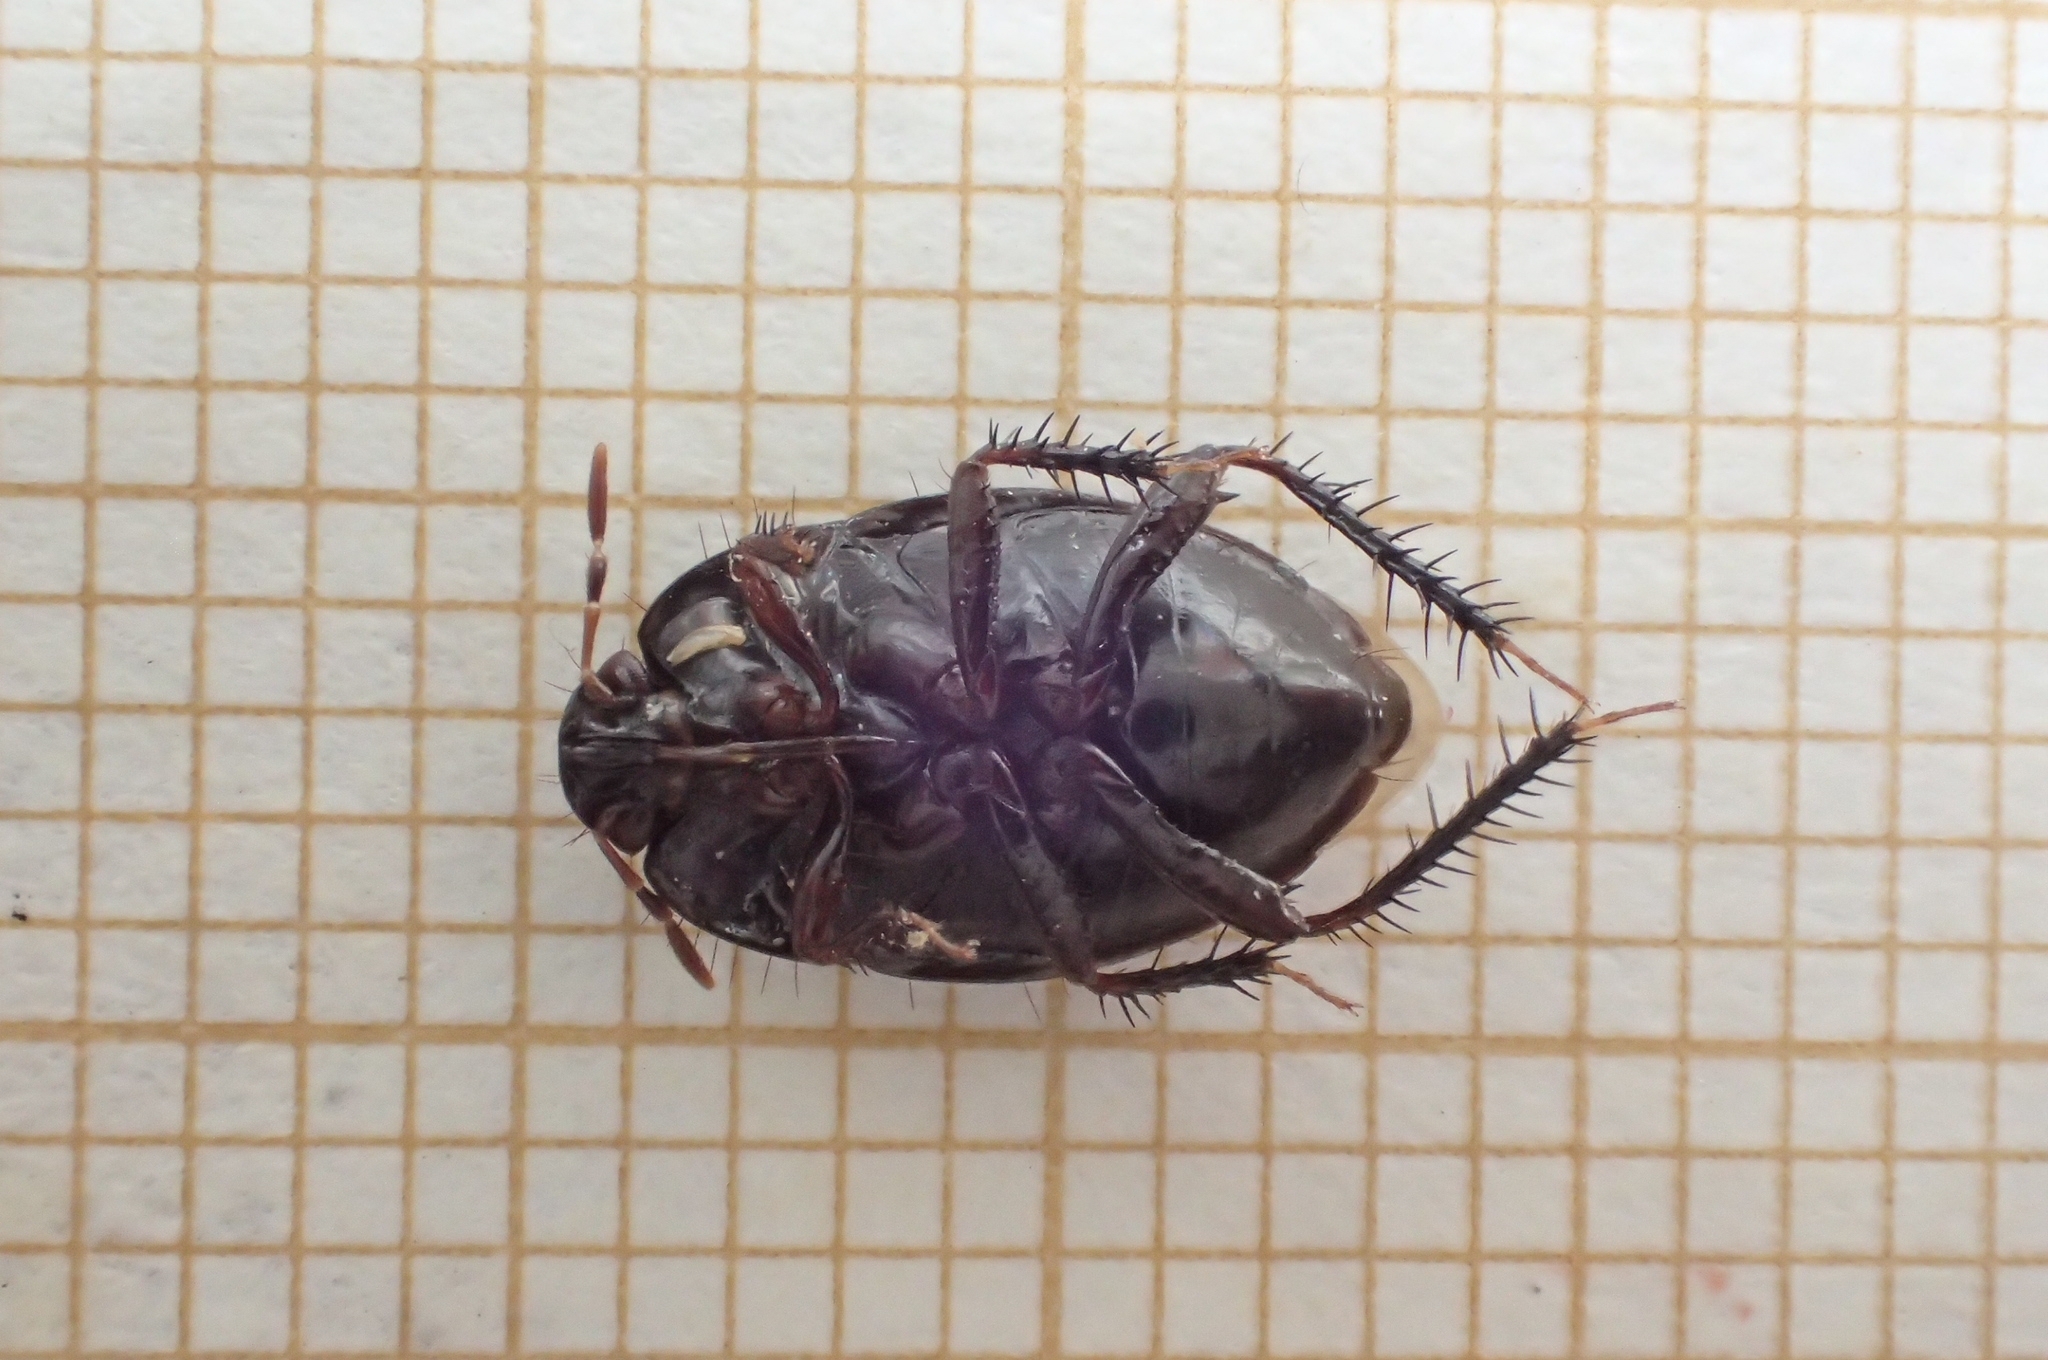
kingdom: Animalia
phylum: Arthropoda
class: Insecta
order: Hemiptera
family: Cydnidae
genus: Macroscytus
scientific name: Macroscytus brunneus
